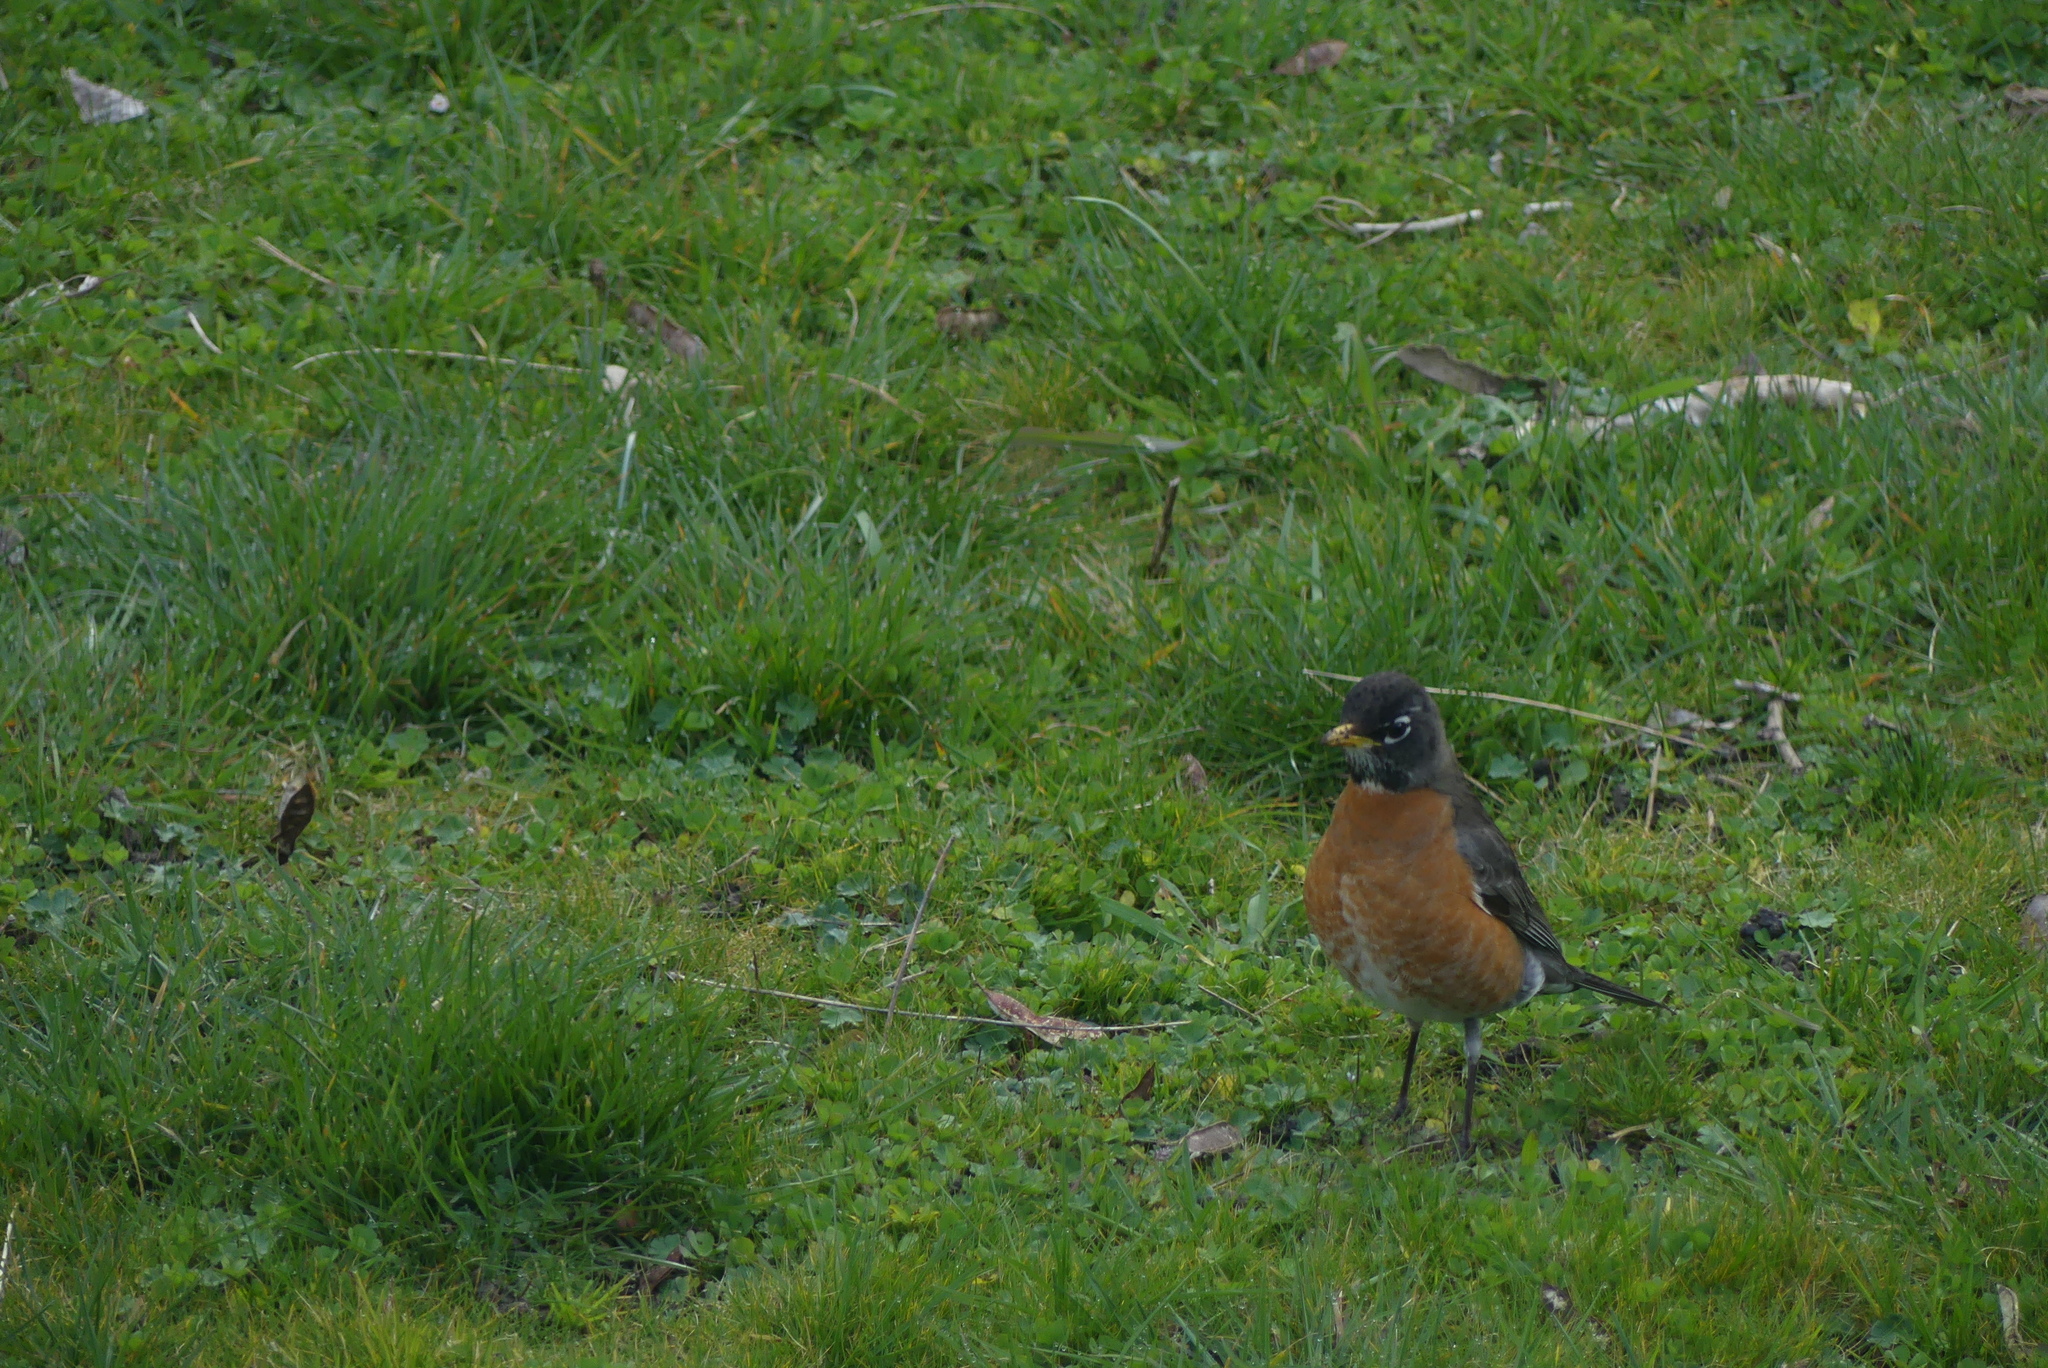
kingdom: Animalia
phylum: Chordata
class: Aves
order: Passeriformes
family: Turdidae
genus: Turdus
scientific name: Turdus migratorius
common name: American robin
